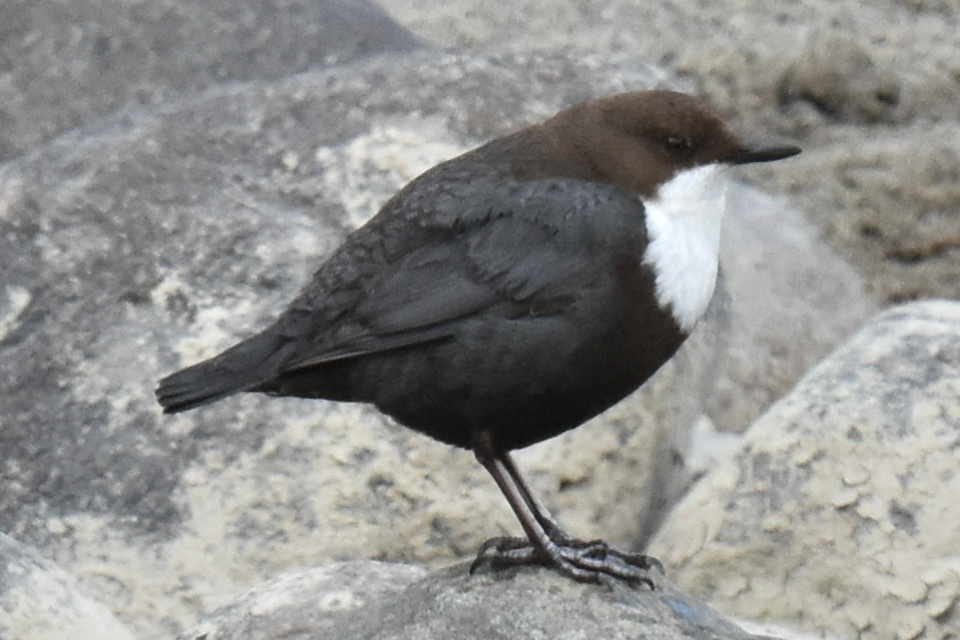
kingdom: Animalia
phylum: Chordata
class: Aves
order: Passeriformes
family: Cinclidae
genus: Cinclus
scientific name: Cinclus cinclus
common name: White-throated dipper
